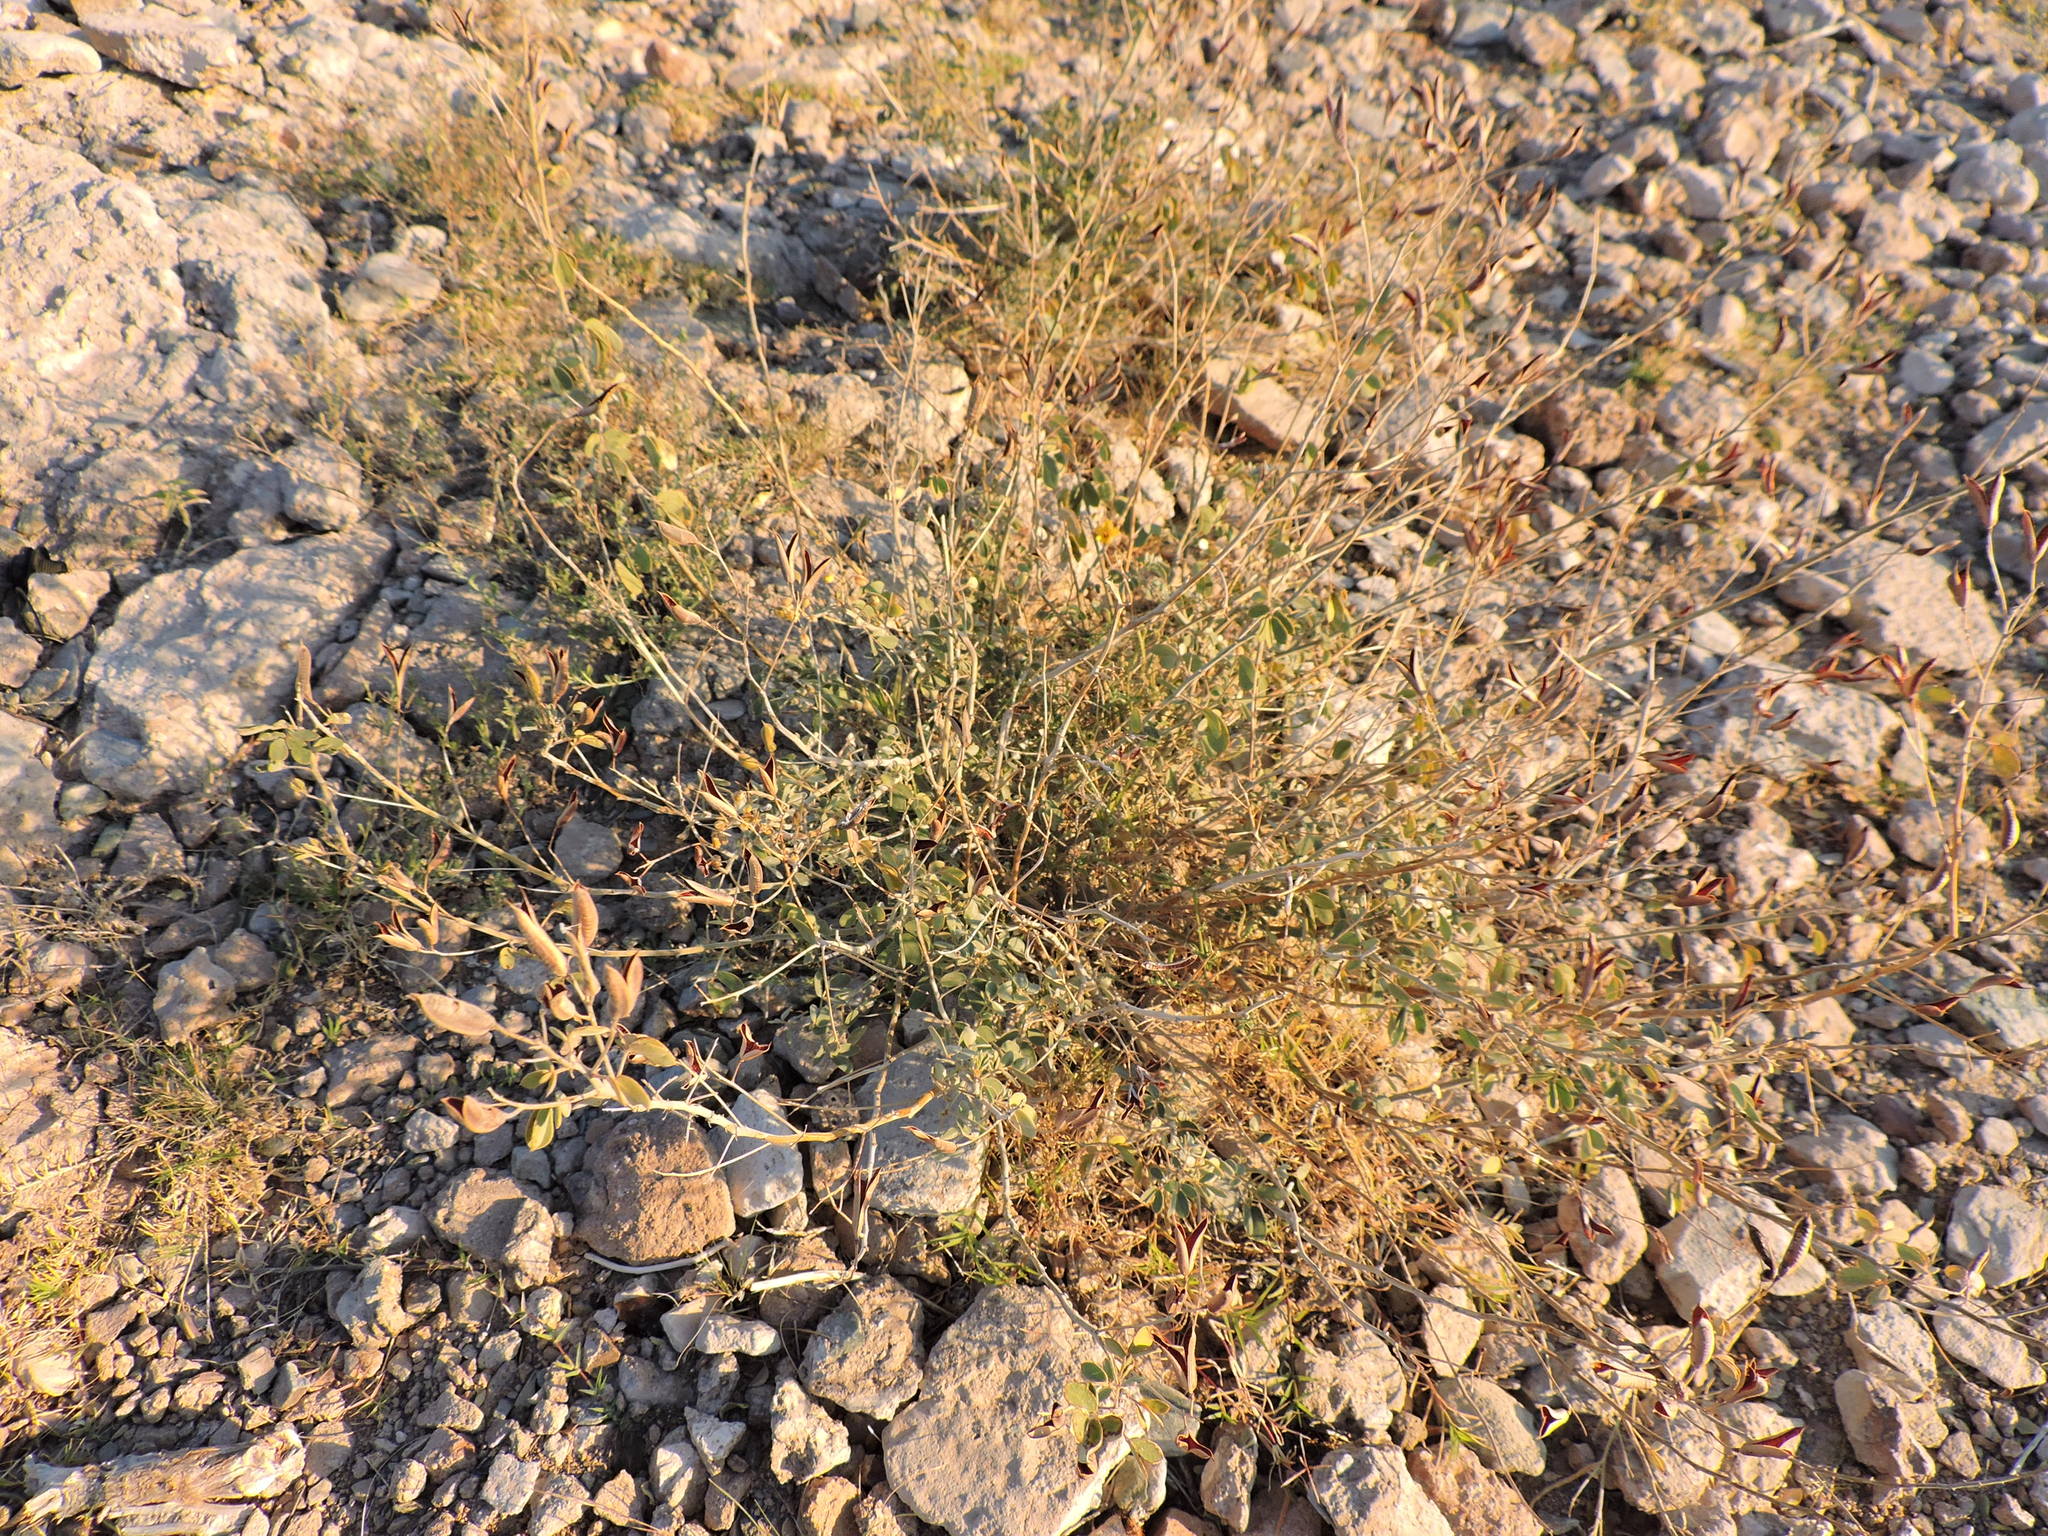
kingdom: Plantae
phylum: Tracheophyta
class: Magnoliopsida
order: Fabales
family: Fabaceae
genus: Senna
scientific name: Senna covesii
